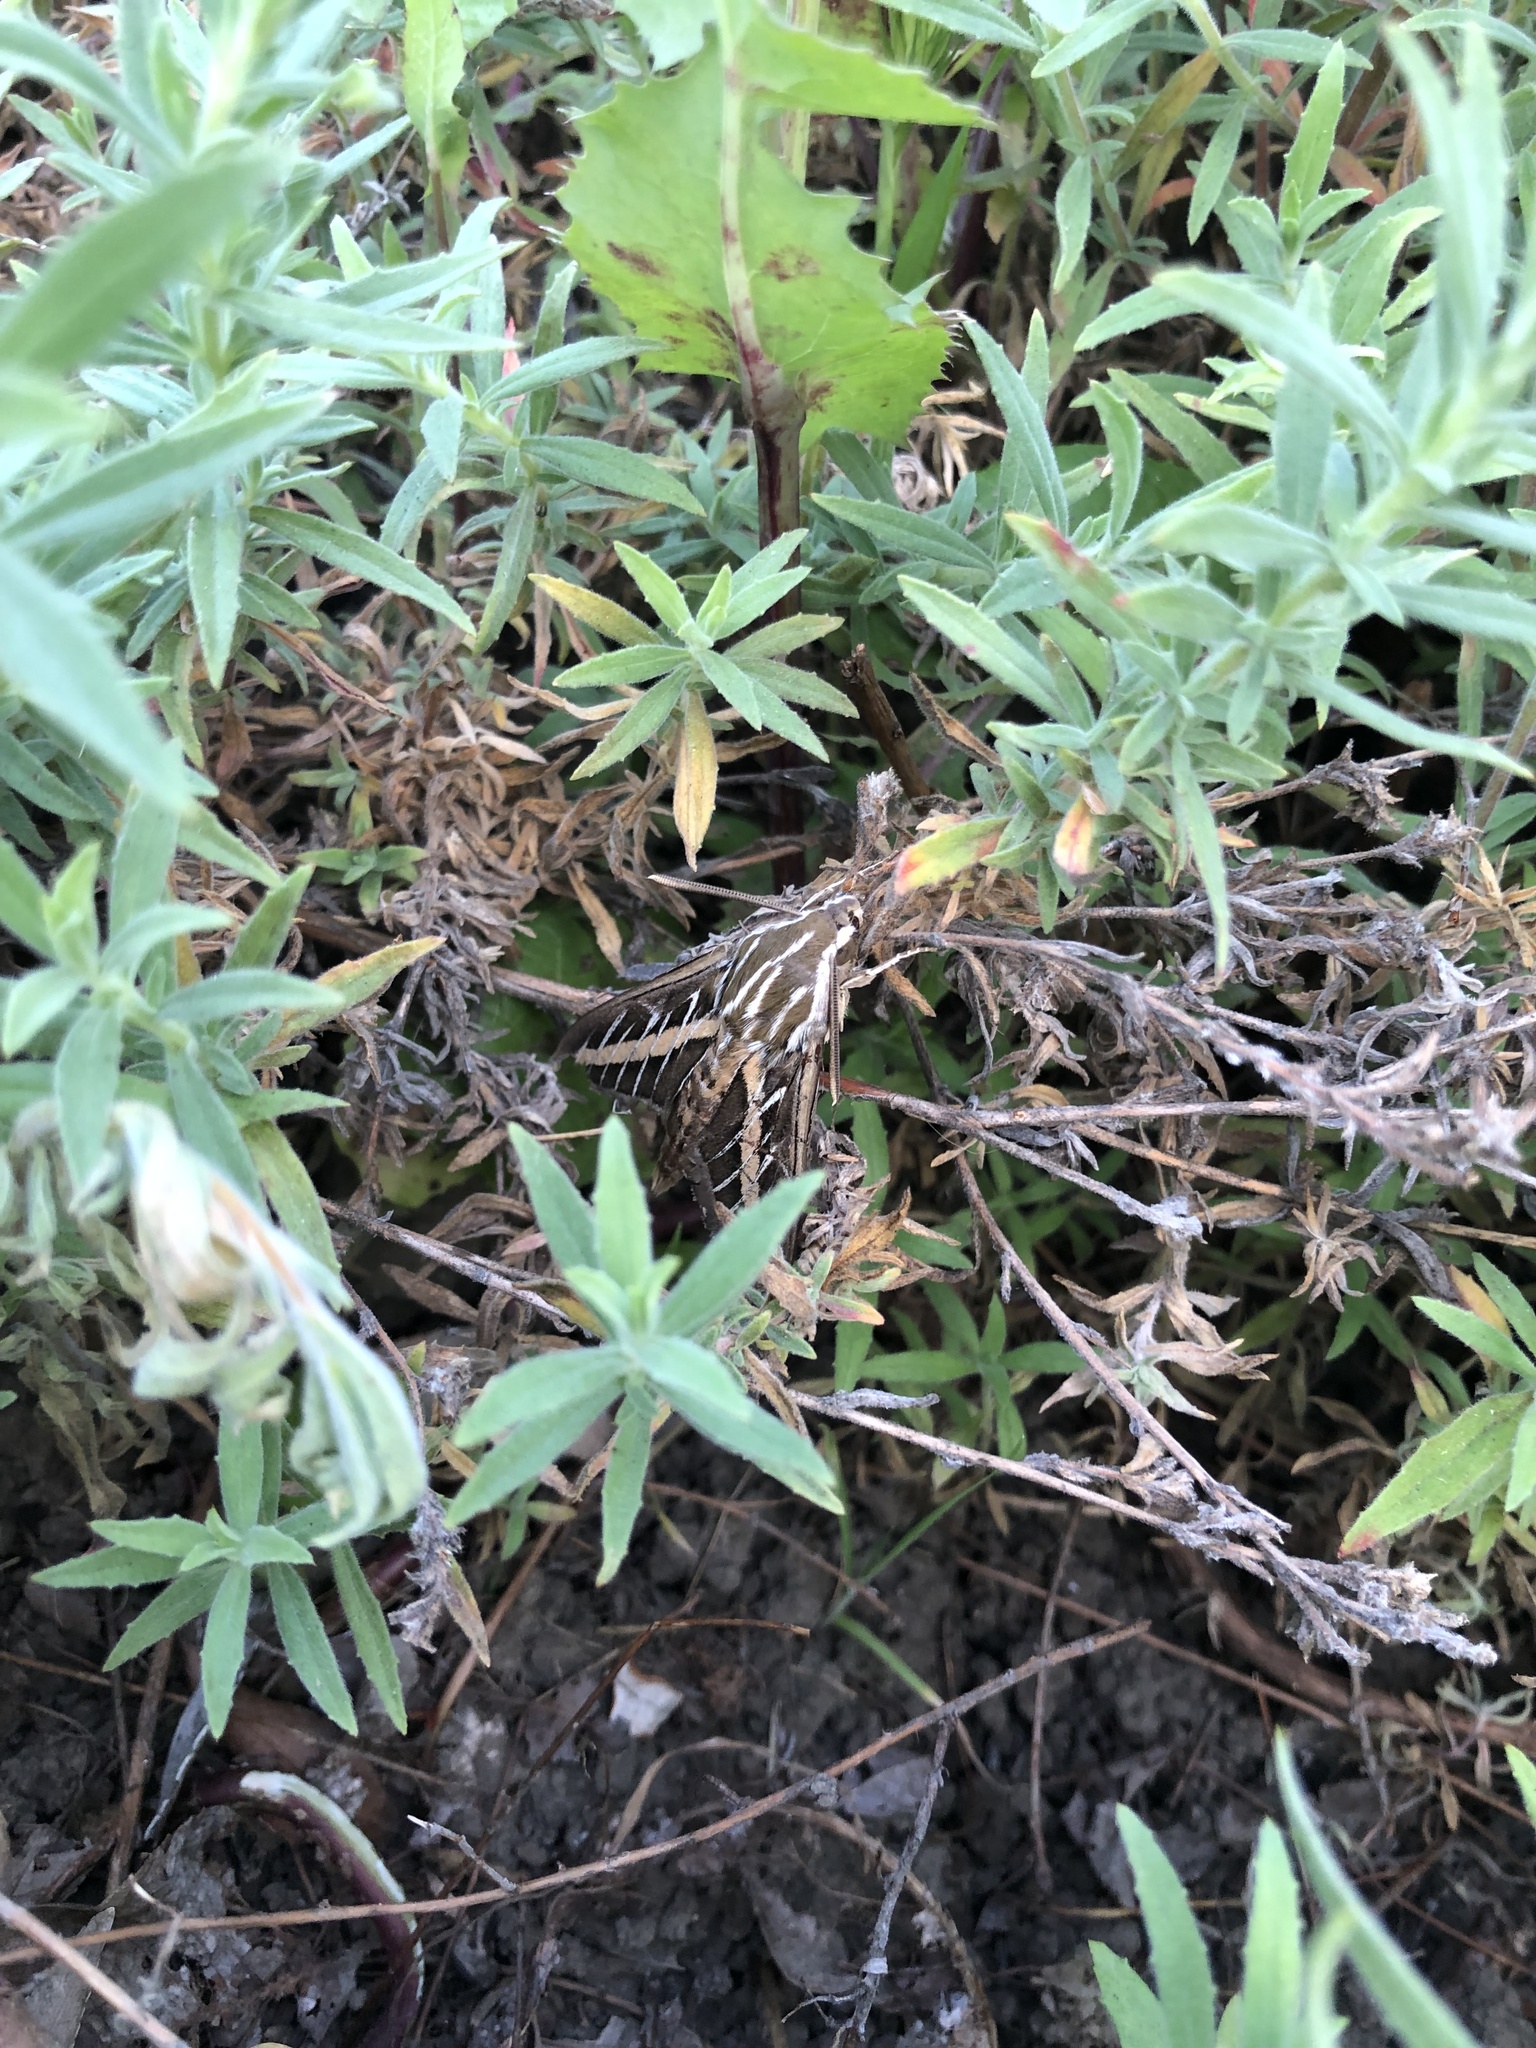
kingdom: Animalia
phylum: Arthropoda
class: Insecta
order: Lepidoptera
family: Sphingidae
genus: Hyles
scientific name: Hyles lineata
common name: White-lined sphinx
